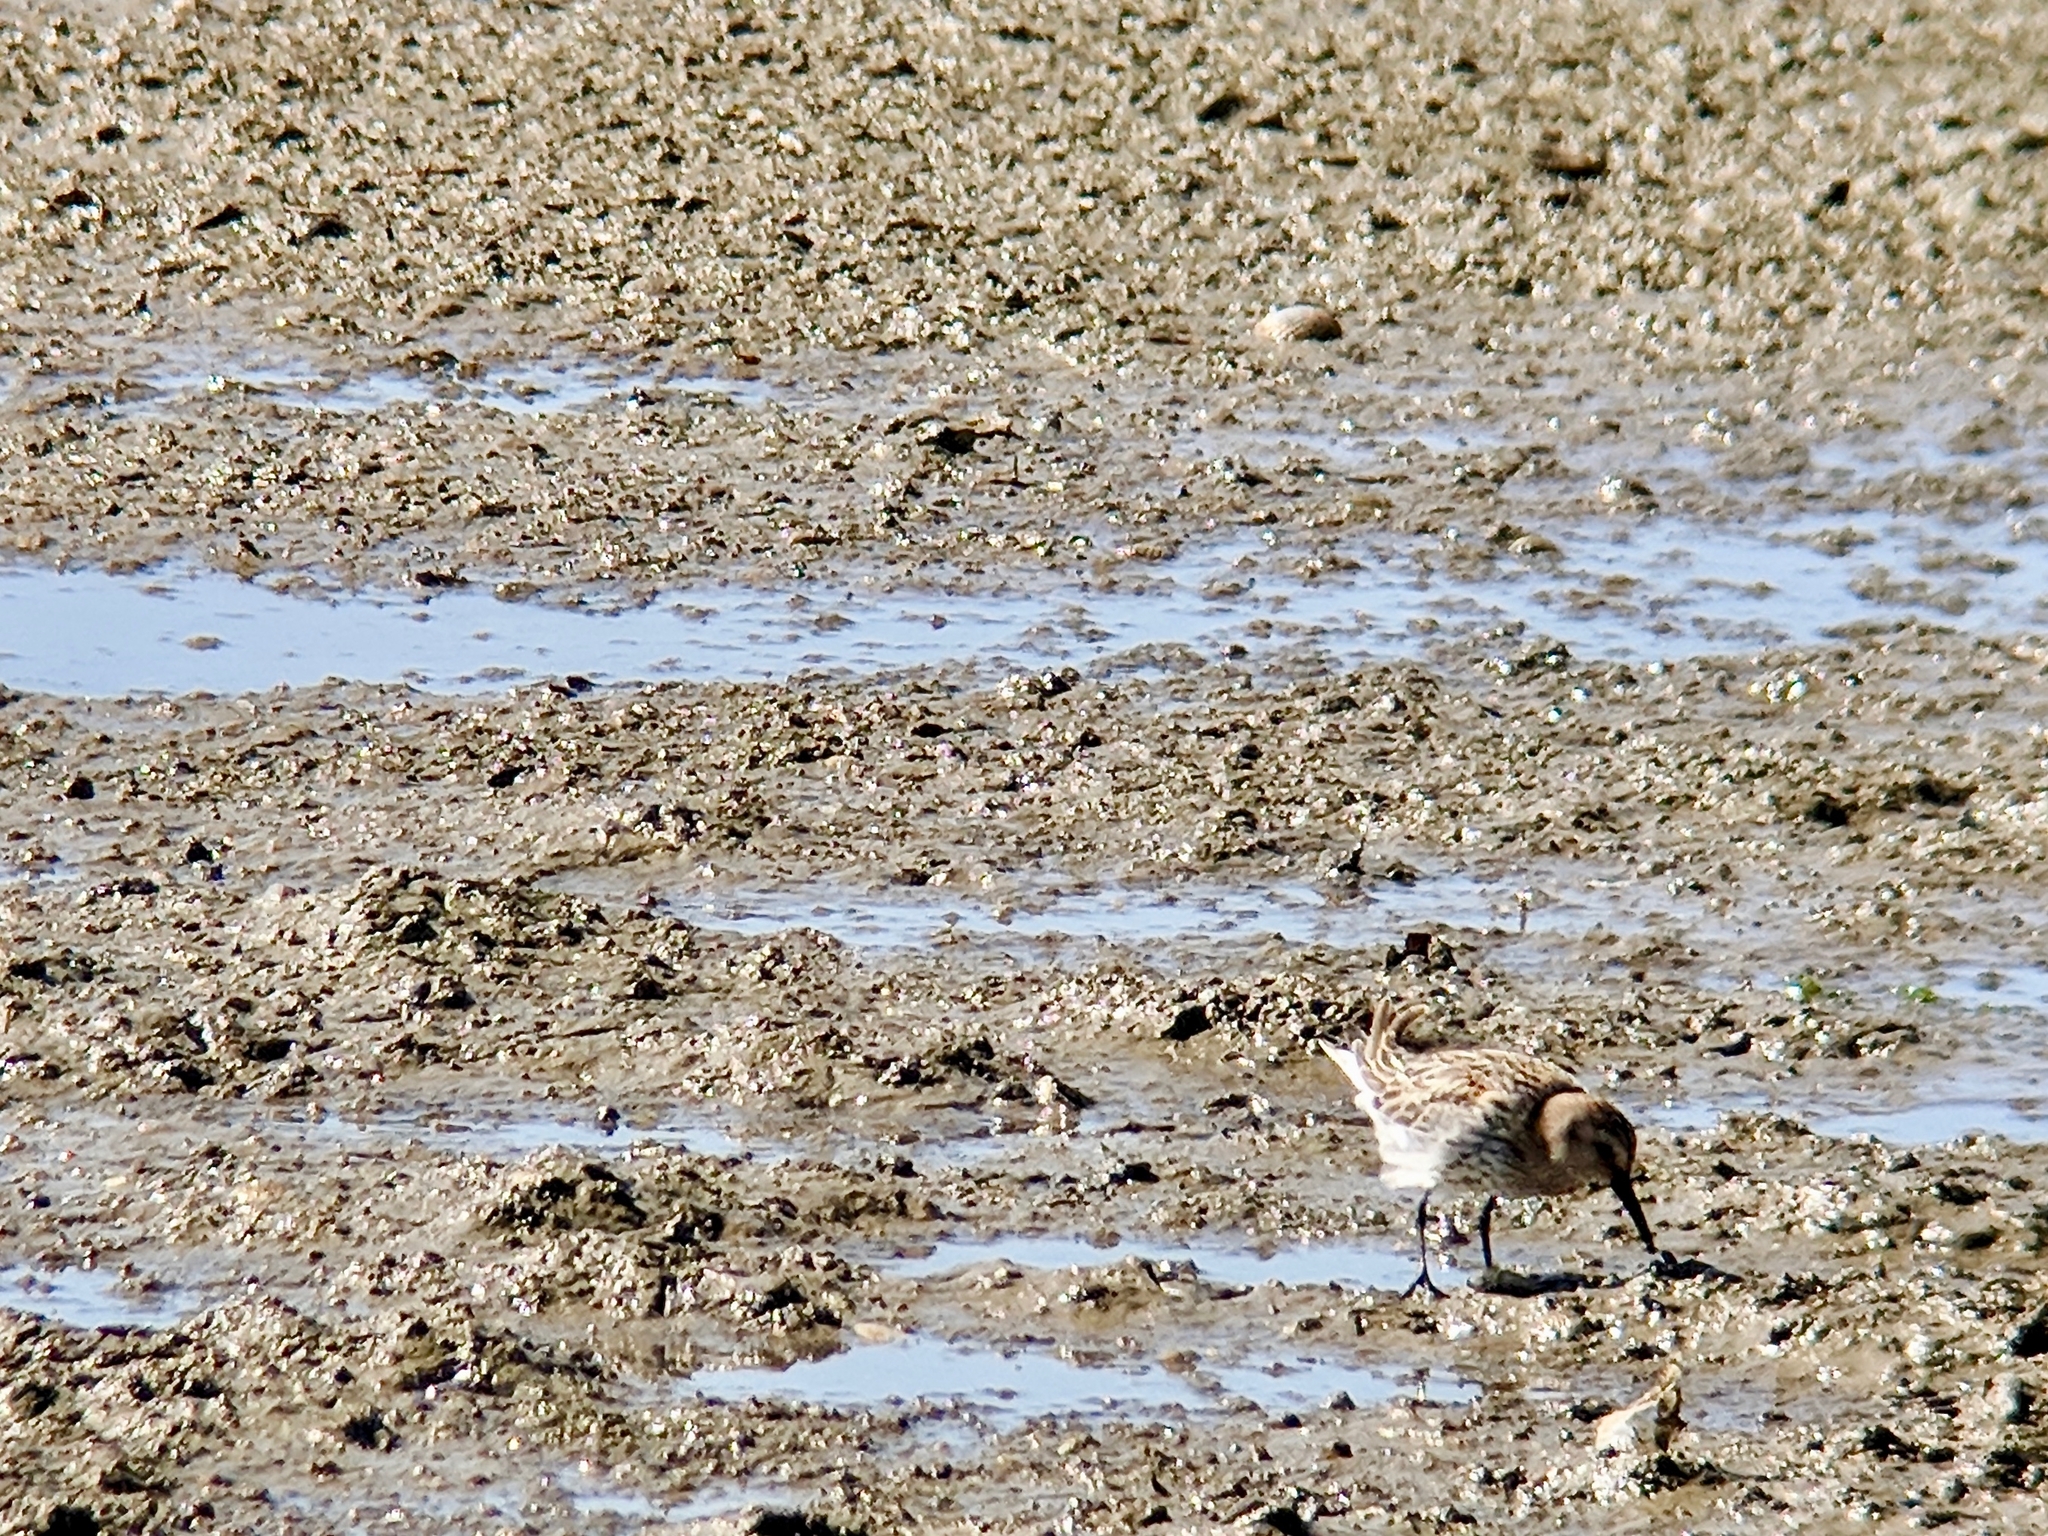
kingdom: Animalia
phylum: Chordata
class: Aves
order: Charadriiformes
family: Scolopacidae
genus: Calidris
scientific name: Calidris alpina
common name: Dunlin
